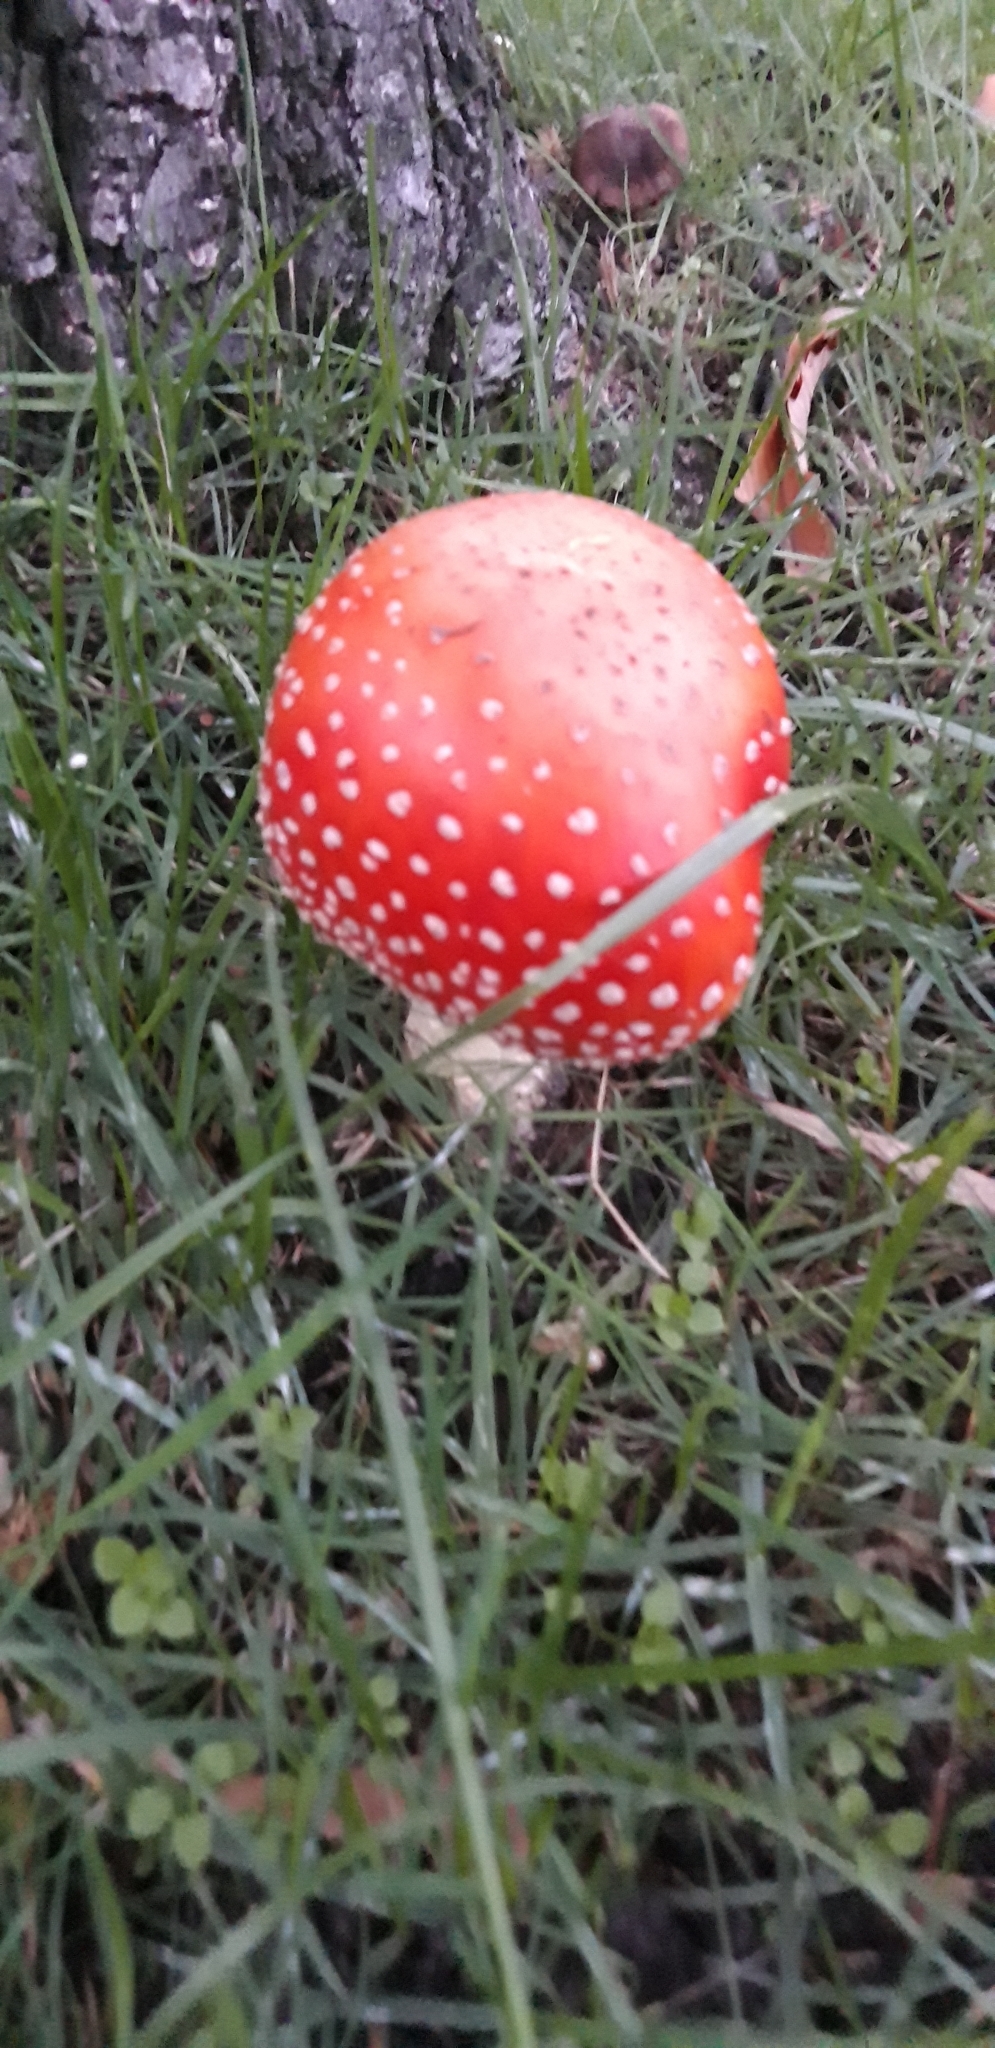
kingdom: Fungi
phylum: Basidiomycota
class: Agaricomycetes
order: Agaricales
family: Amanitaceae
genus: Amanita
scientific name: Amanita muscaria
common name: Fly agaric
